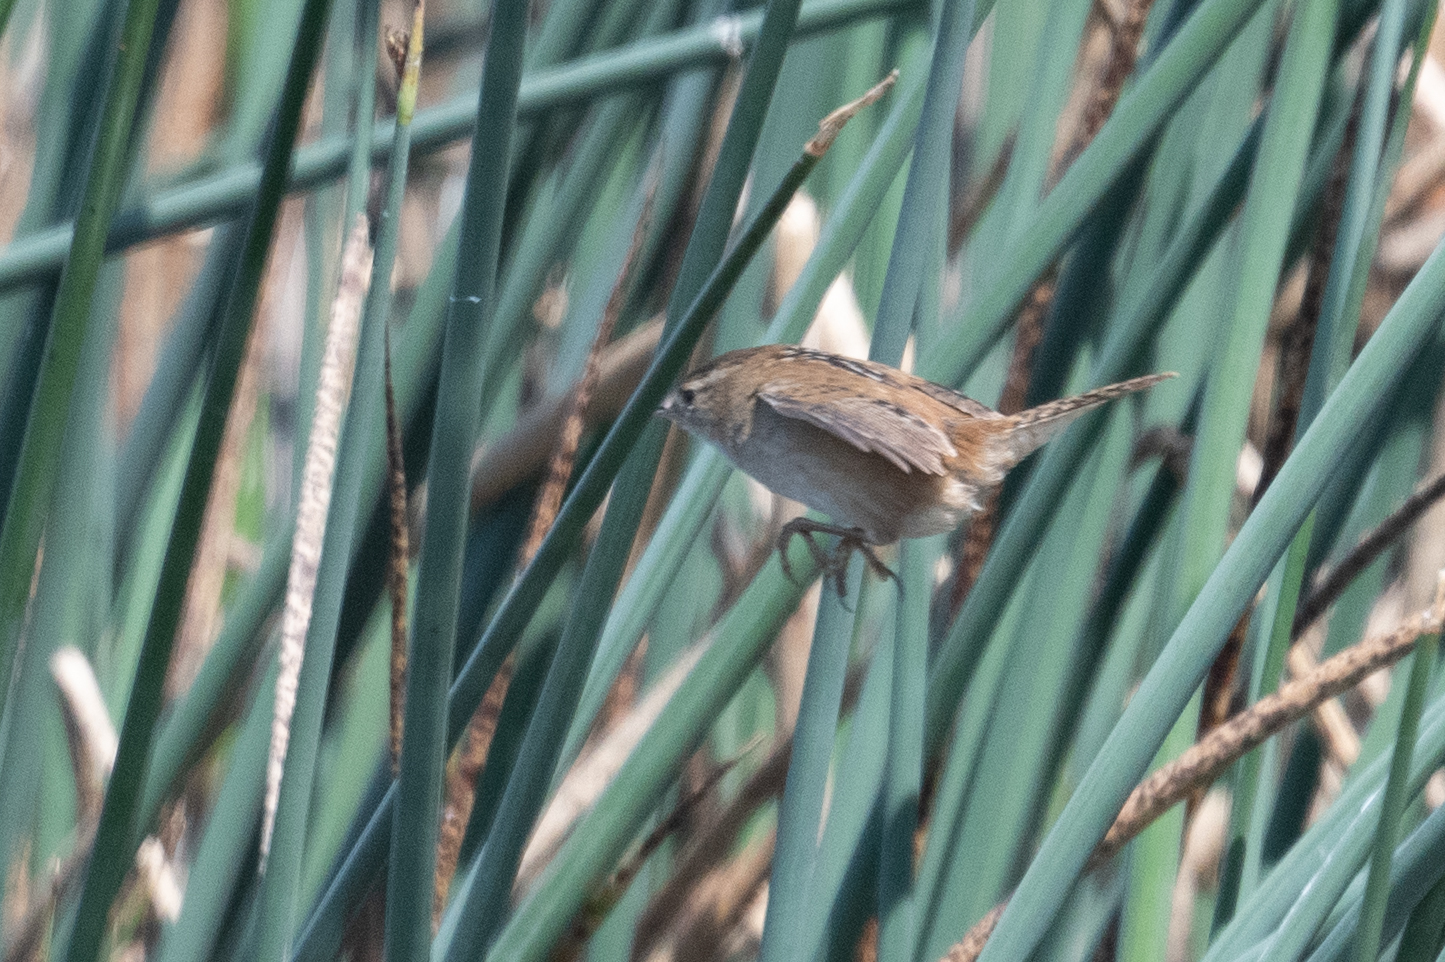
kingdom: Animalia
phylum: Chordata
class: Aves
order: Passeriformes
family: Troglodytidae
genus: Cistothorus
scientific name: Cistothorus palustris
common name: Marsh wren
